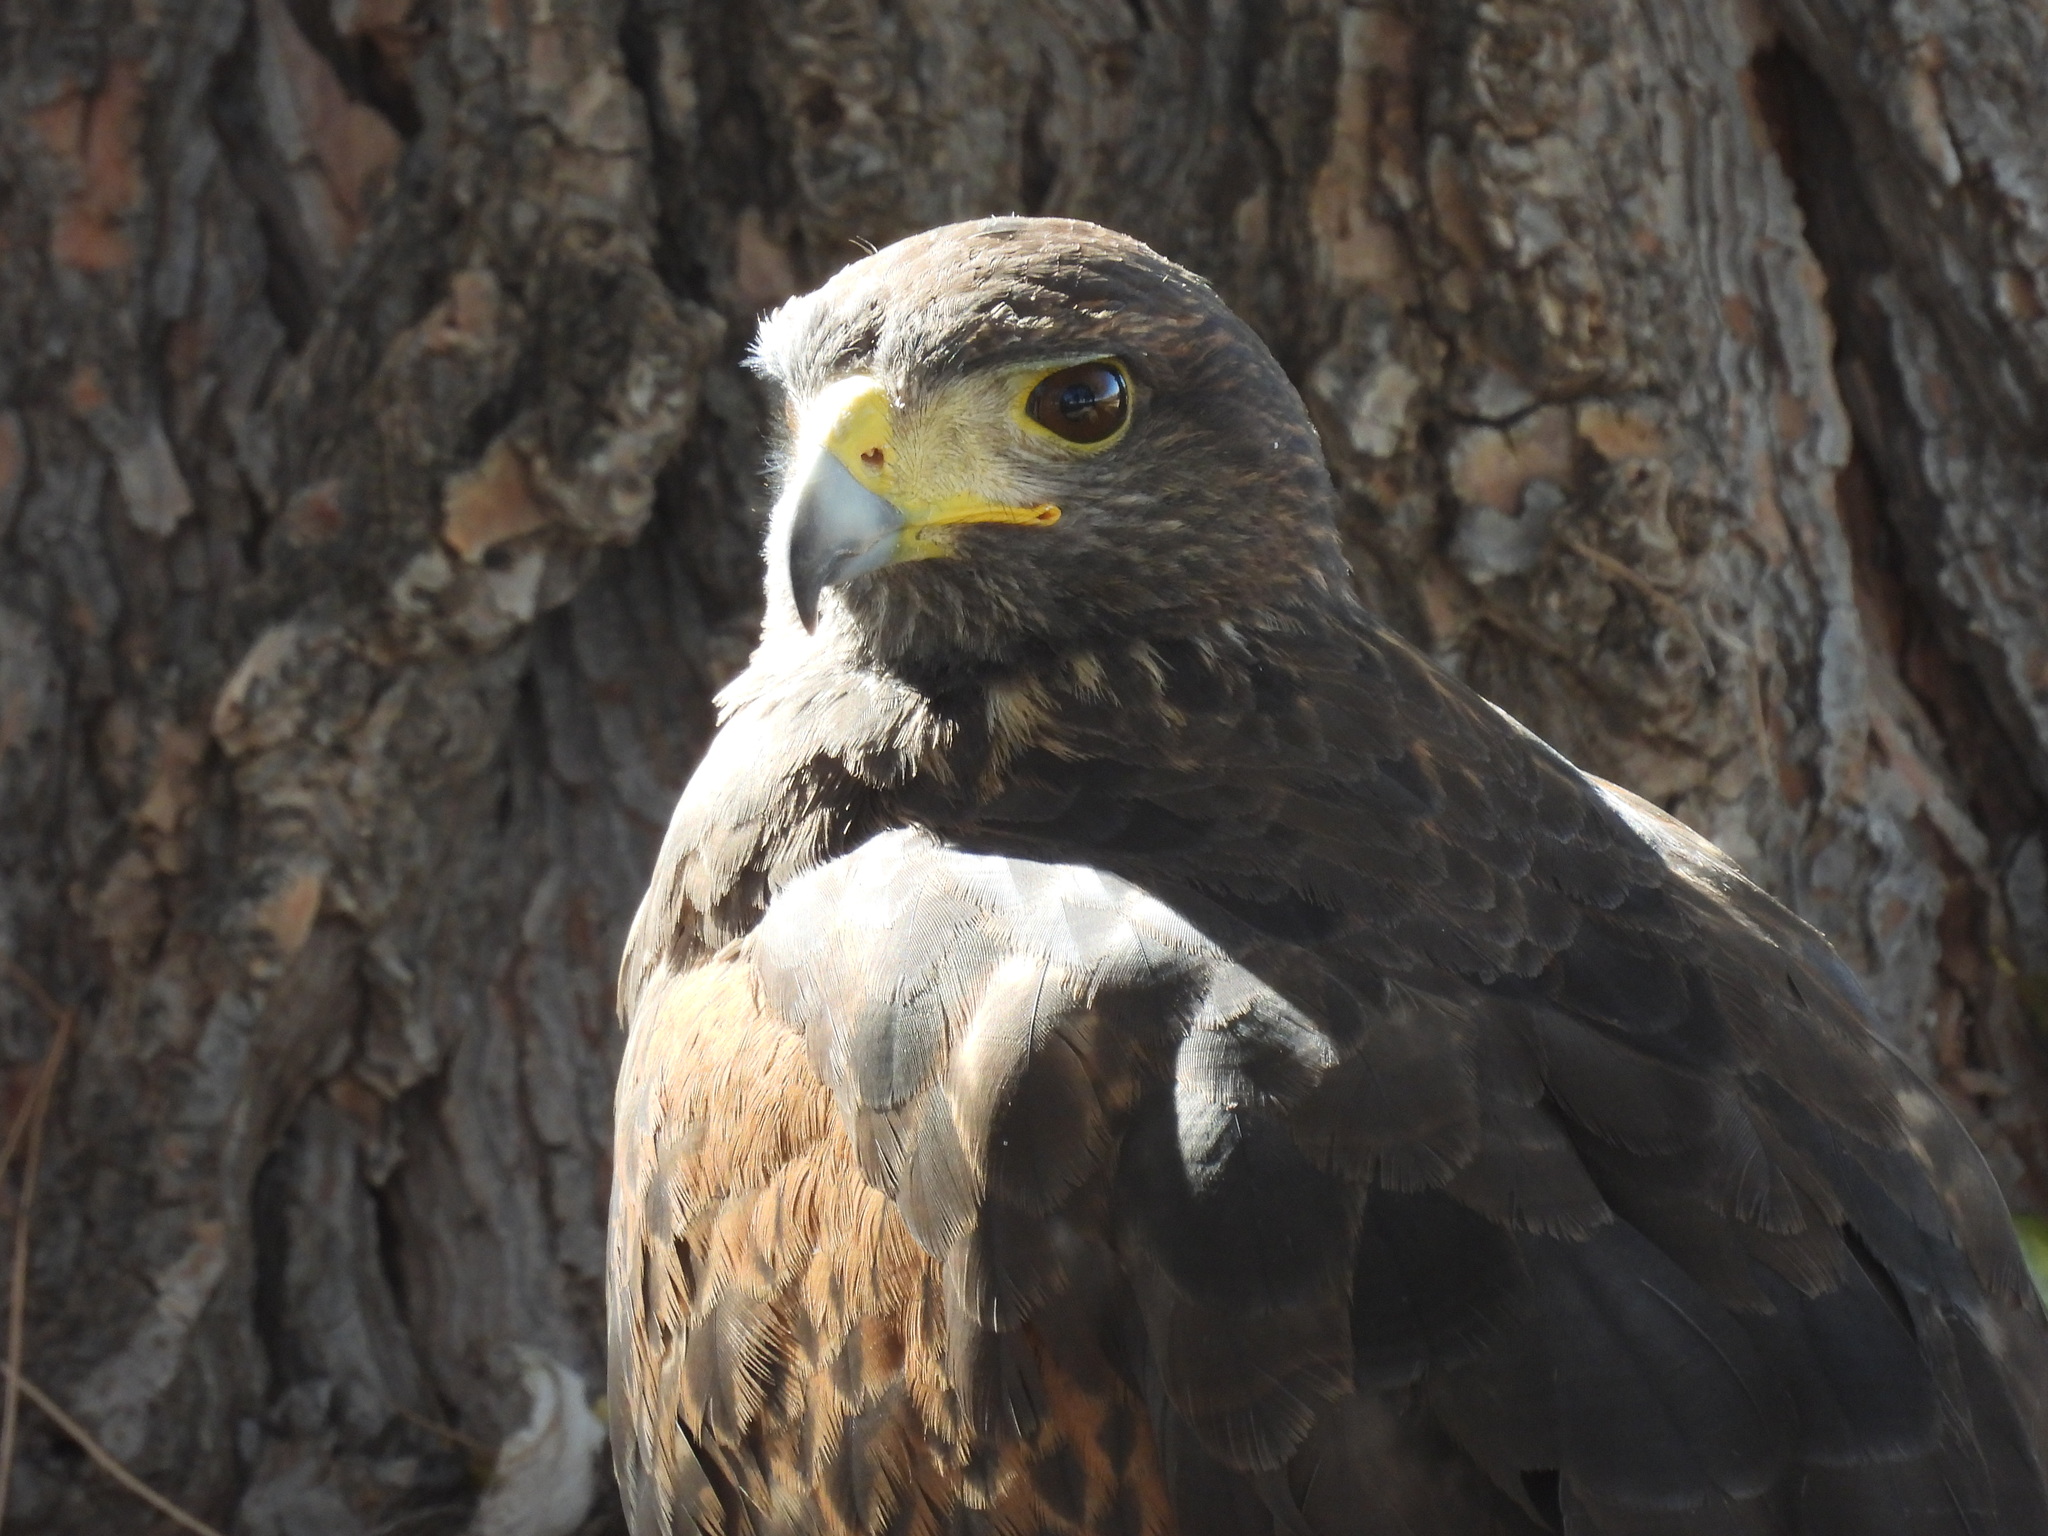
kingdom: Animalia
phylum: Chordata
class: Aves
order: Accipitriformes
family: Accipitridae
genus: Parabuteo
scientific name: Parabuteo unicinctus
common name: Harris's hawk
